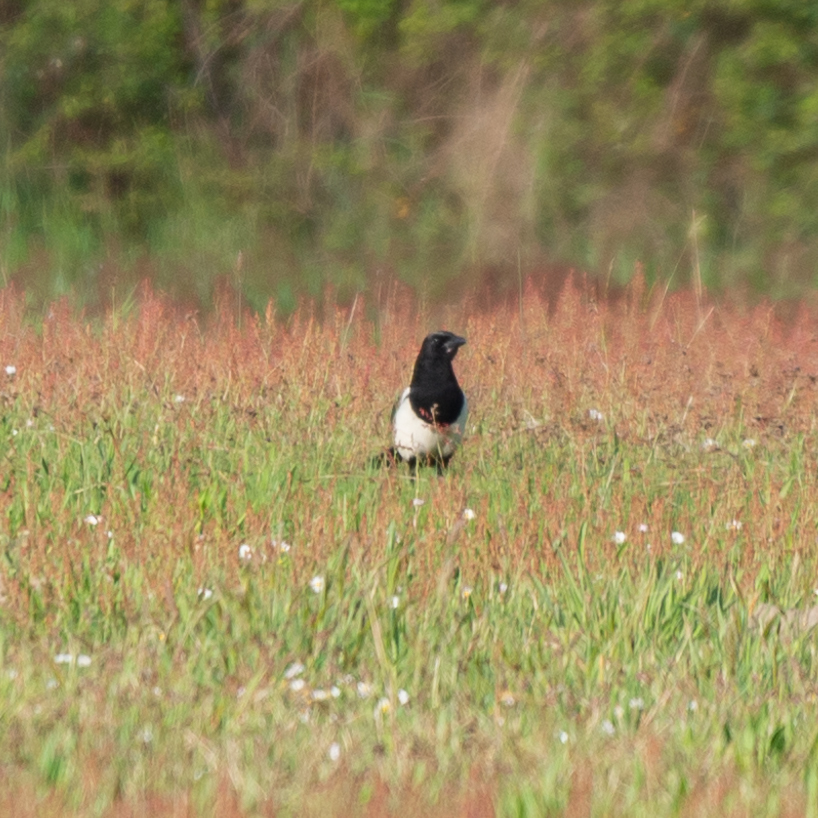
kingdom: Animalia
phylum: Chordata
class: Aves
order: Passeriformes
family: Corvidae
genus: Pica
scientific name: Pica pica
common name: Eurasian magpie
